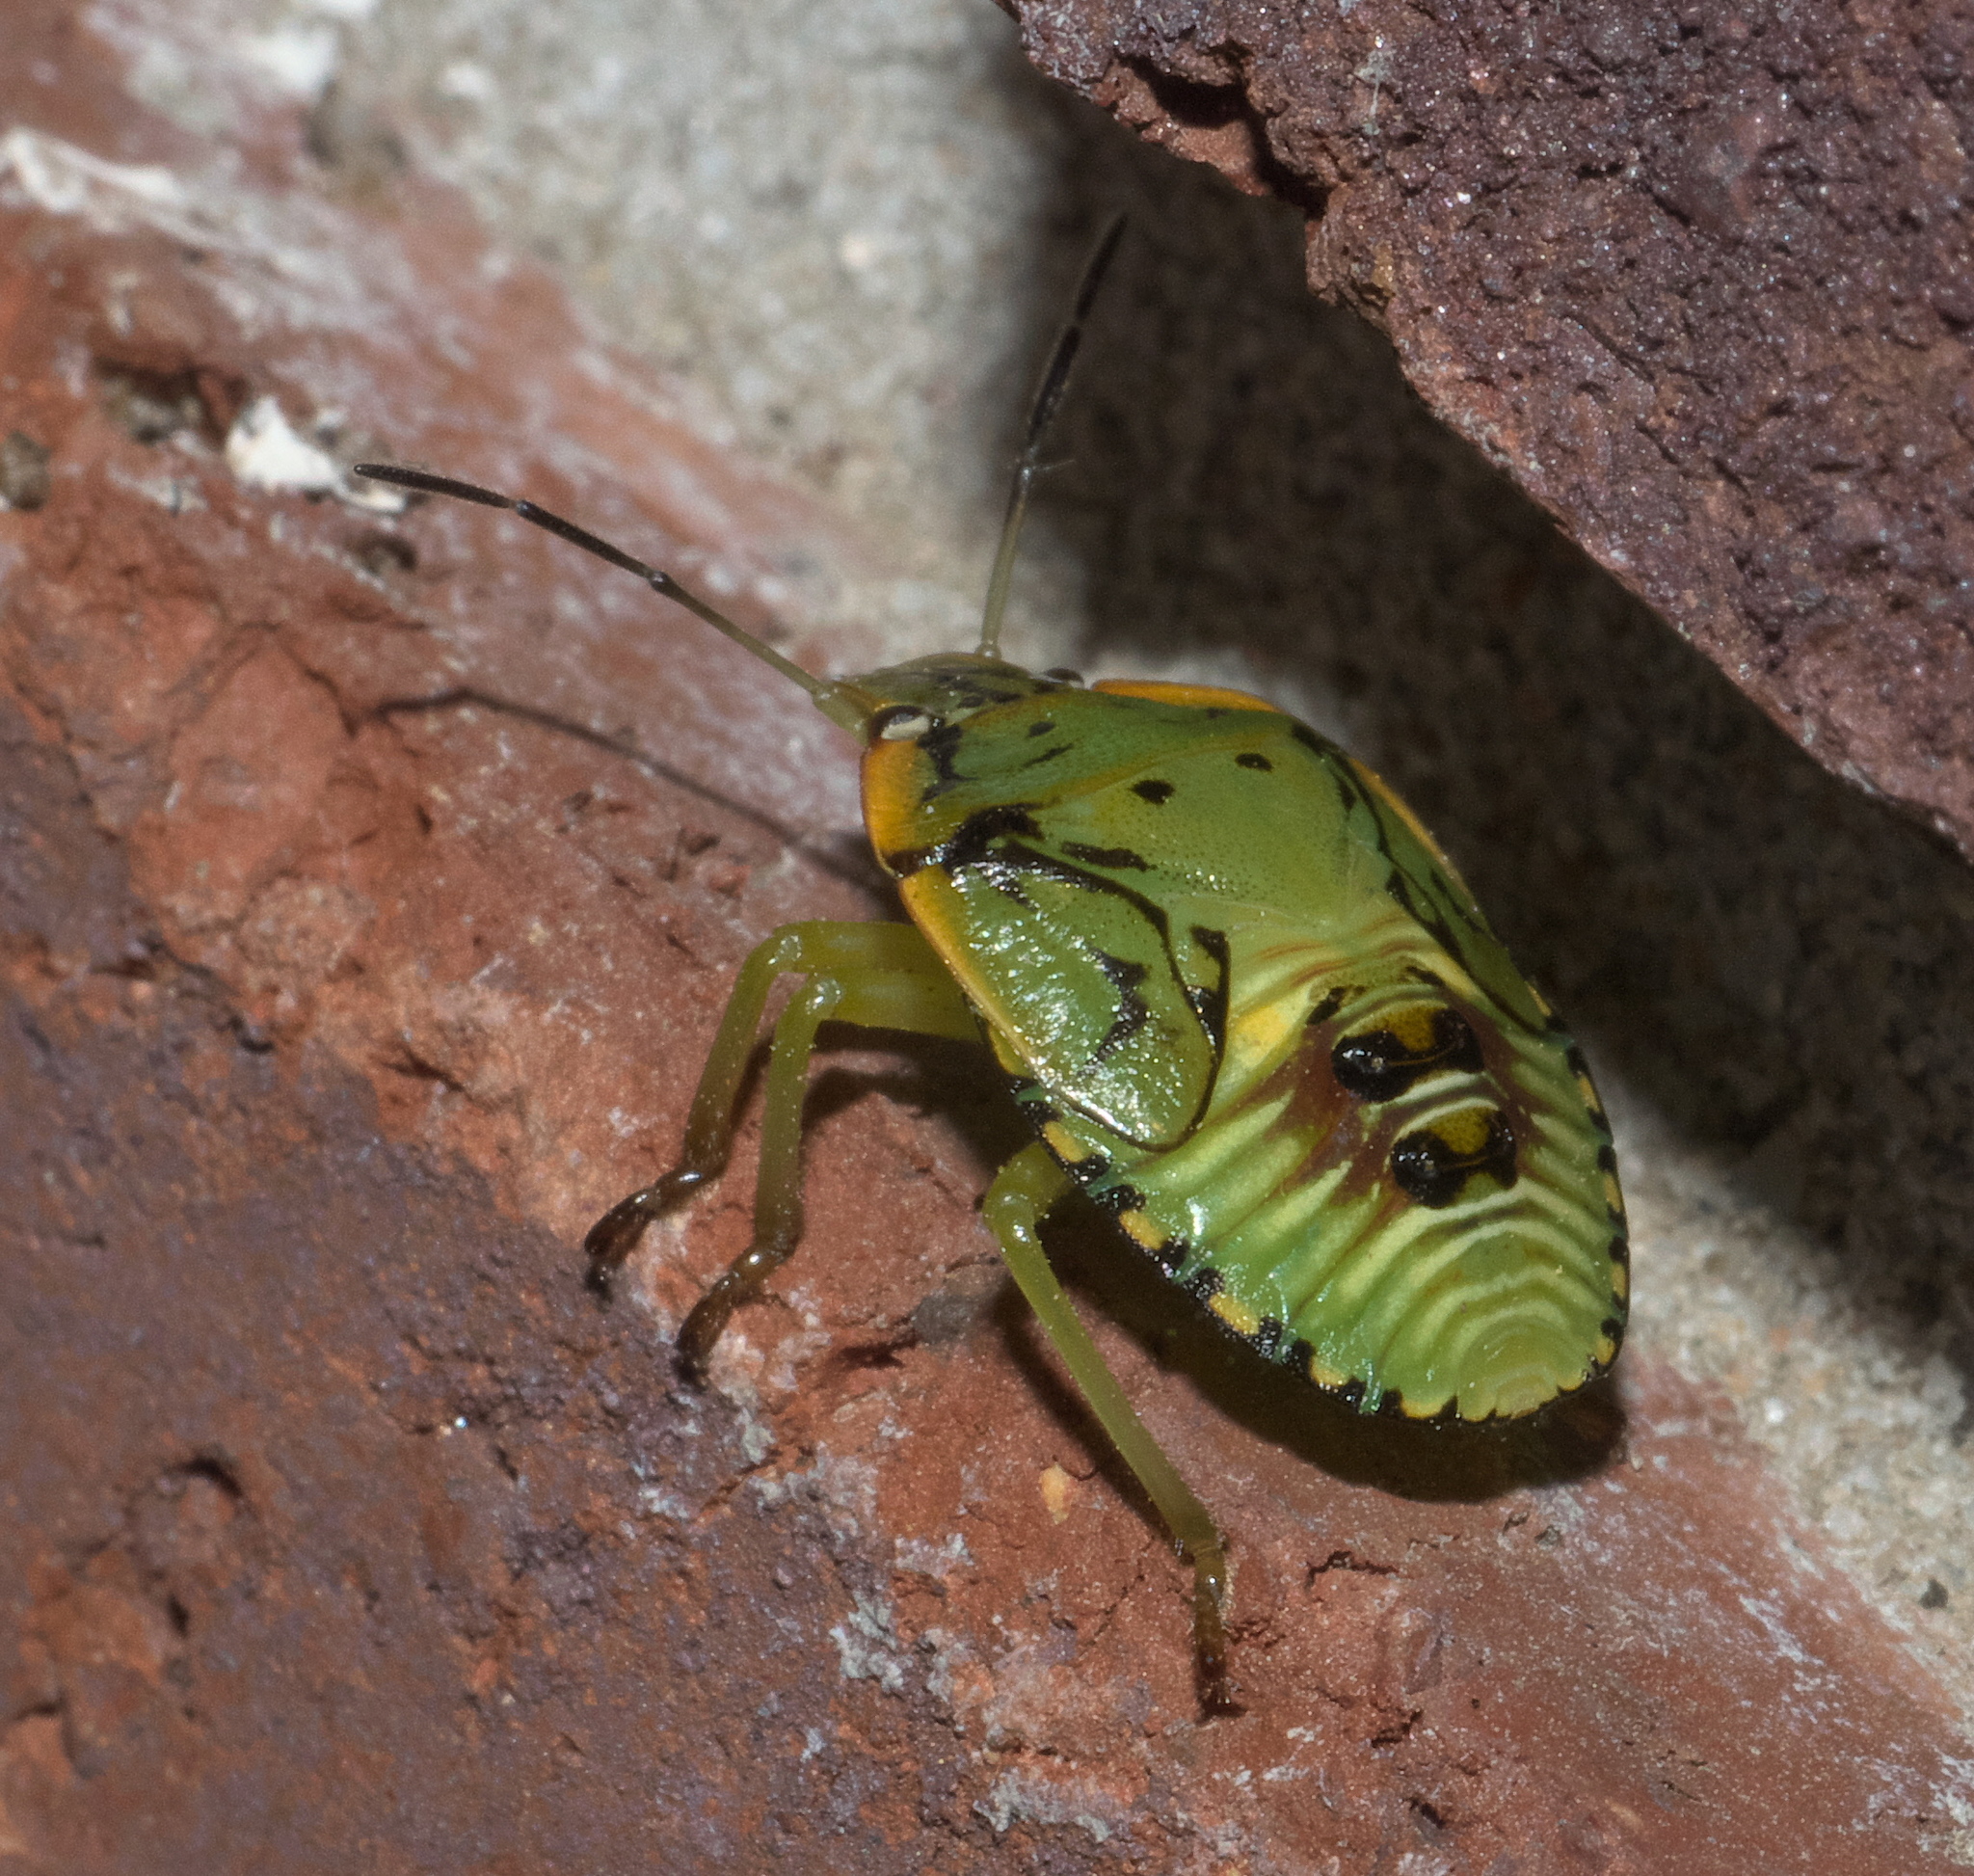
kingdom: Animalia
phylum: Arthropoda
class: Insecta
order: Hemiptera
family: Pentatomidae
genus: Chinavia
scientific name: Chinavia hilaris
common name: Green stink bug
